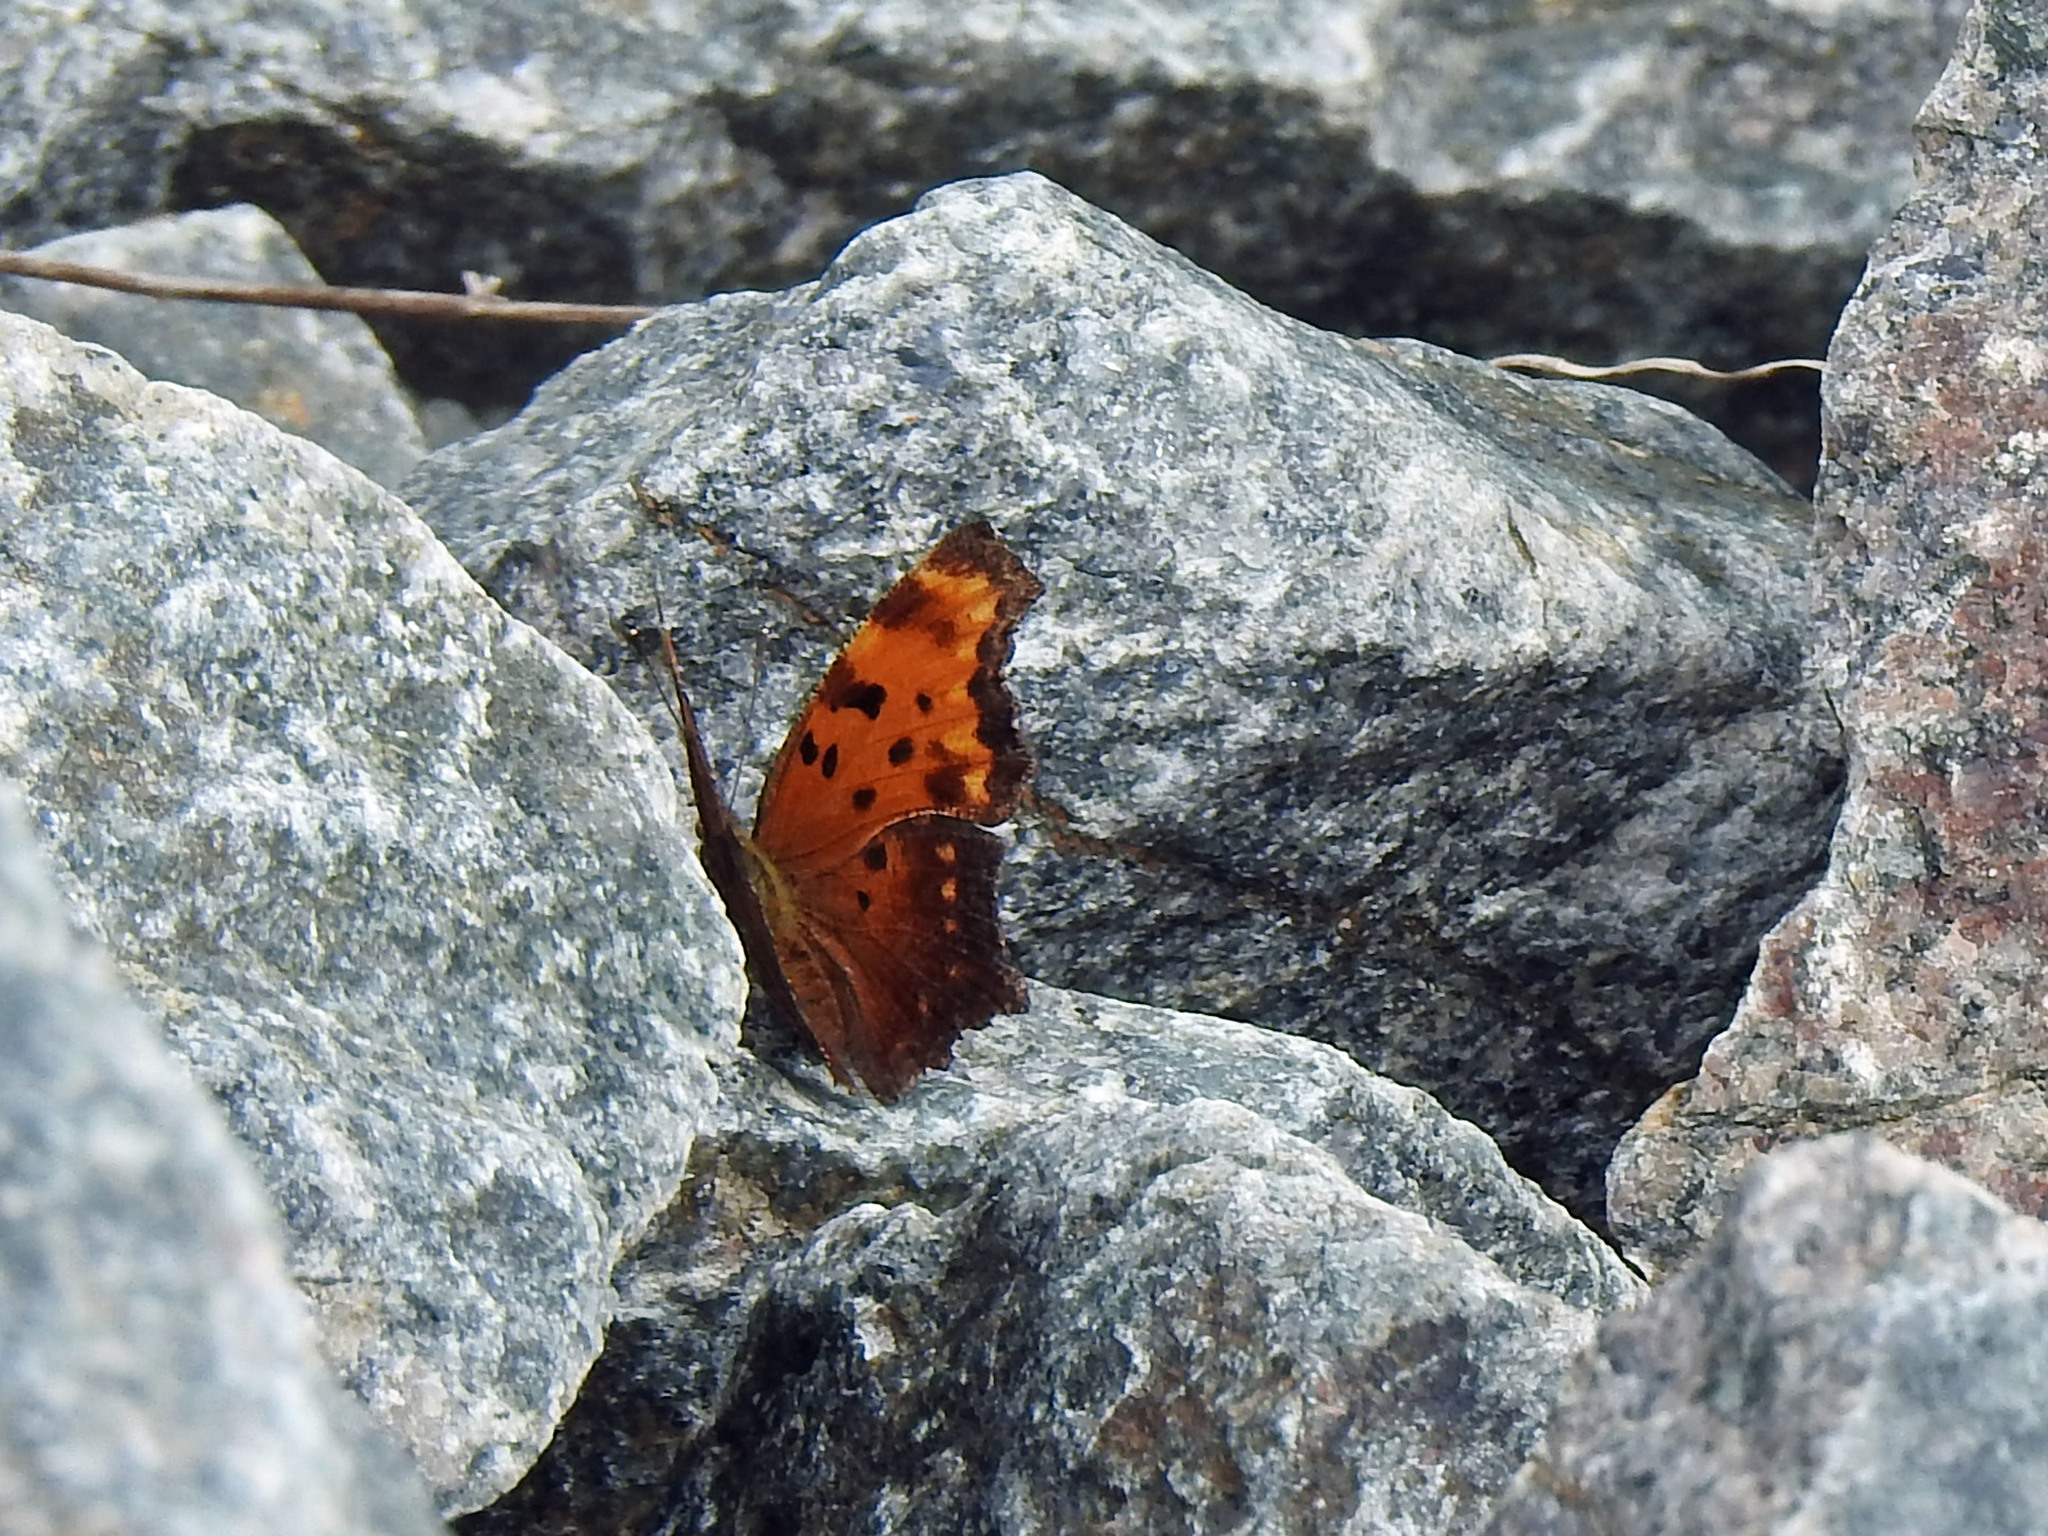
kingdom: Animalia
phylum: Arthropoda
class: Insecta
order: Lepidoptera
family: Nymphalidae
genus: Polygonia
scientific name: Polygonia progne
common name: Gray comma
